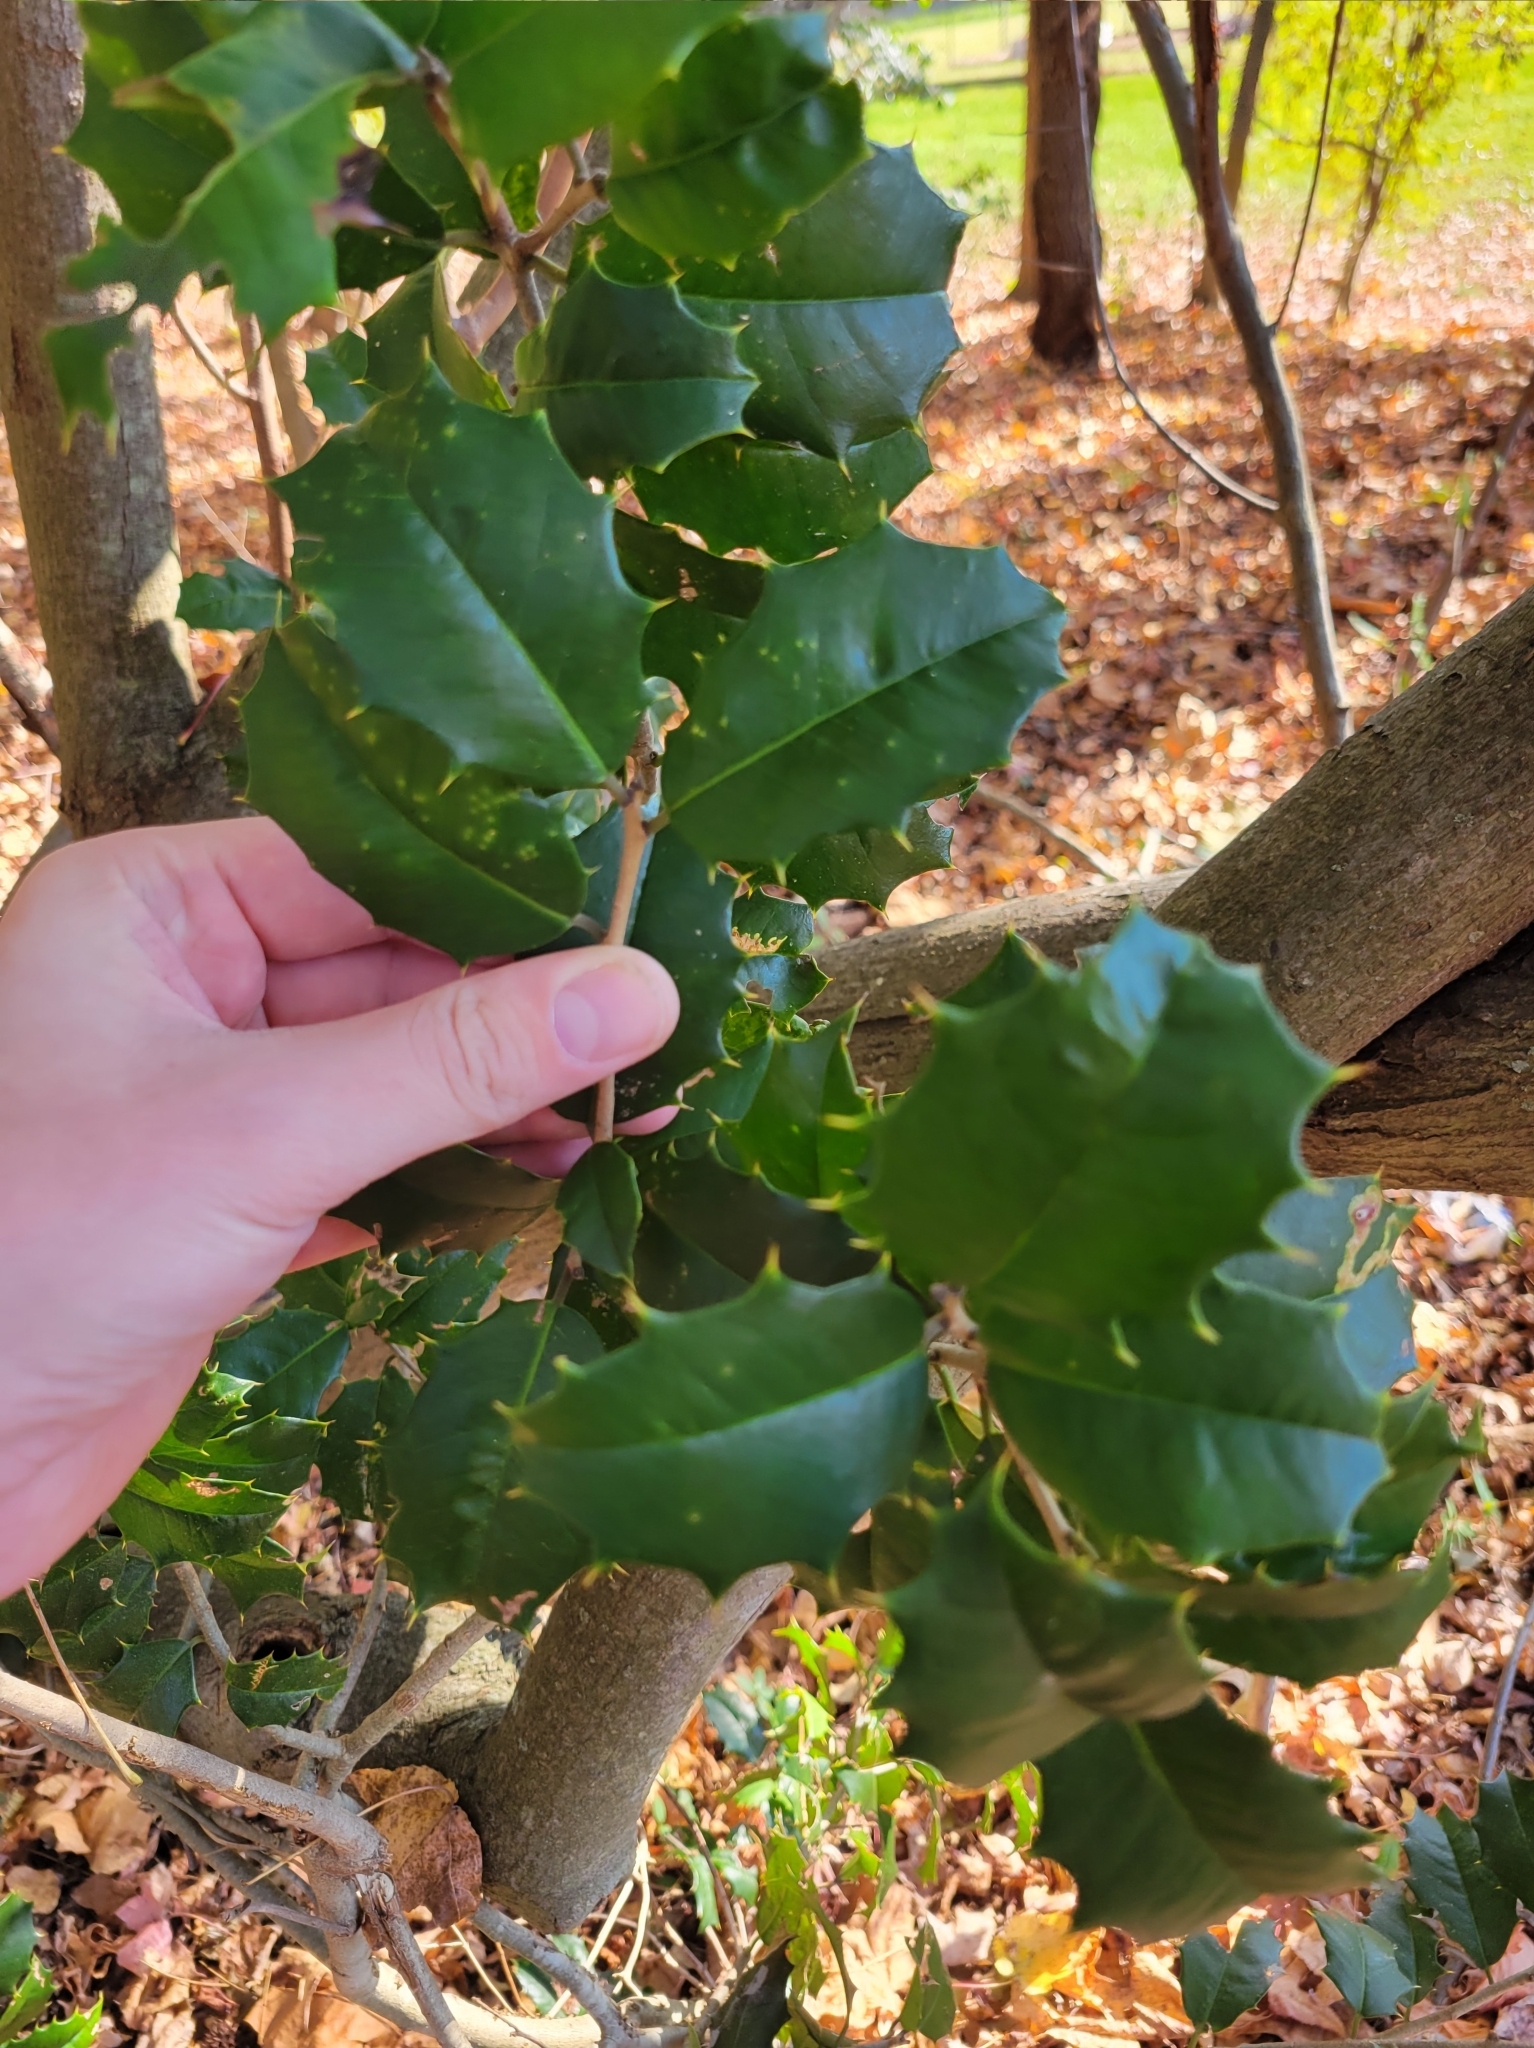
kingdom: Plantae
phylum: Tracheophyta
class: Magnoliopsida
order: Aquifoliales
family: Aquifoliaceae
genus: Ilex
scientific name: Ilex opaca
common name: American holly
